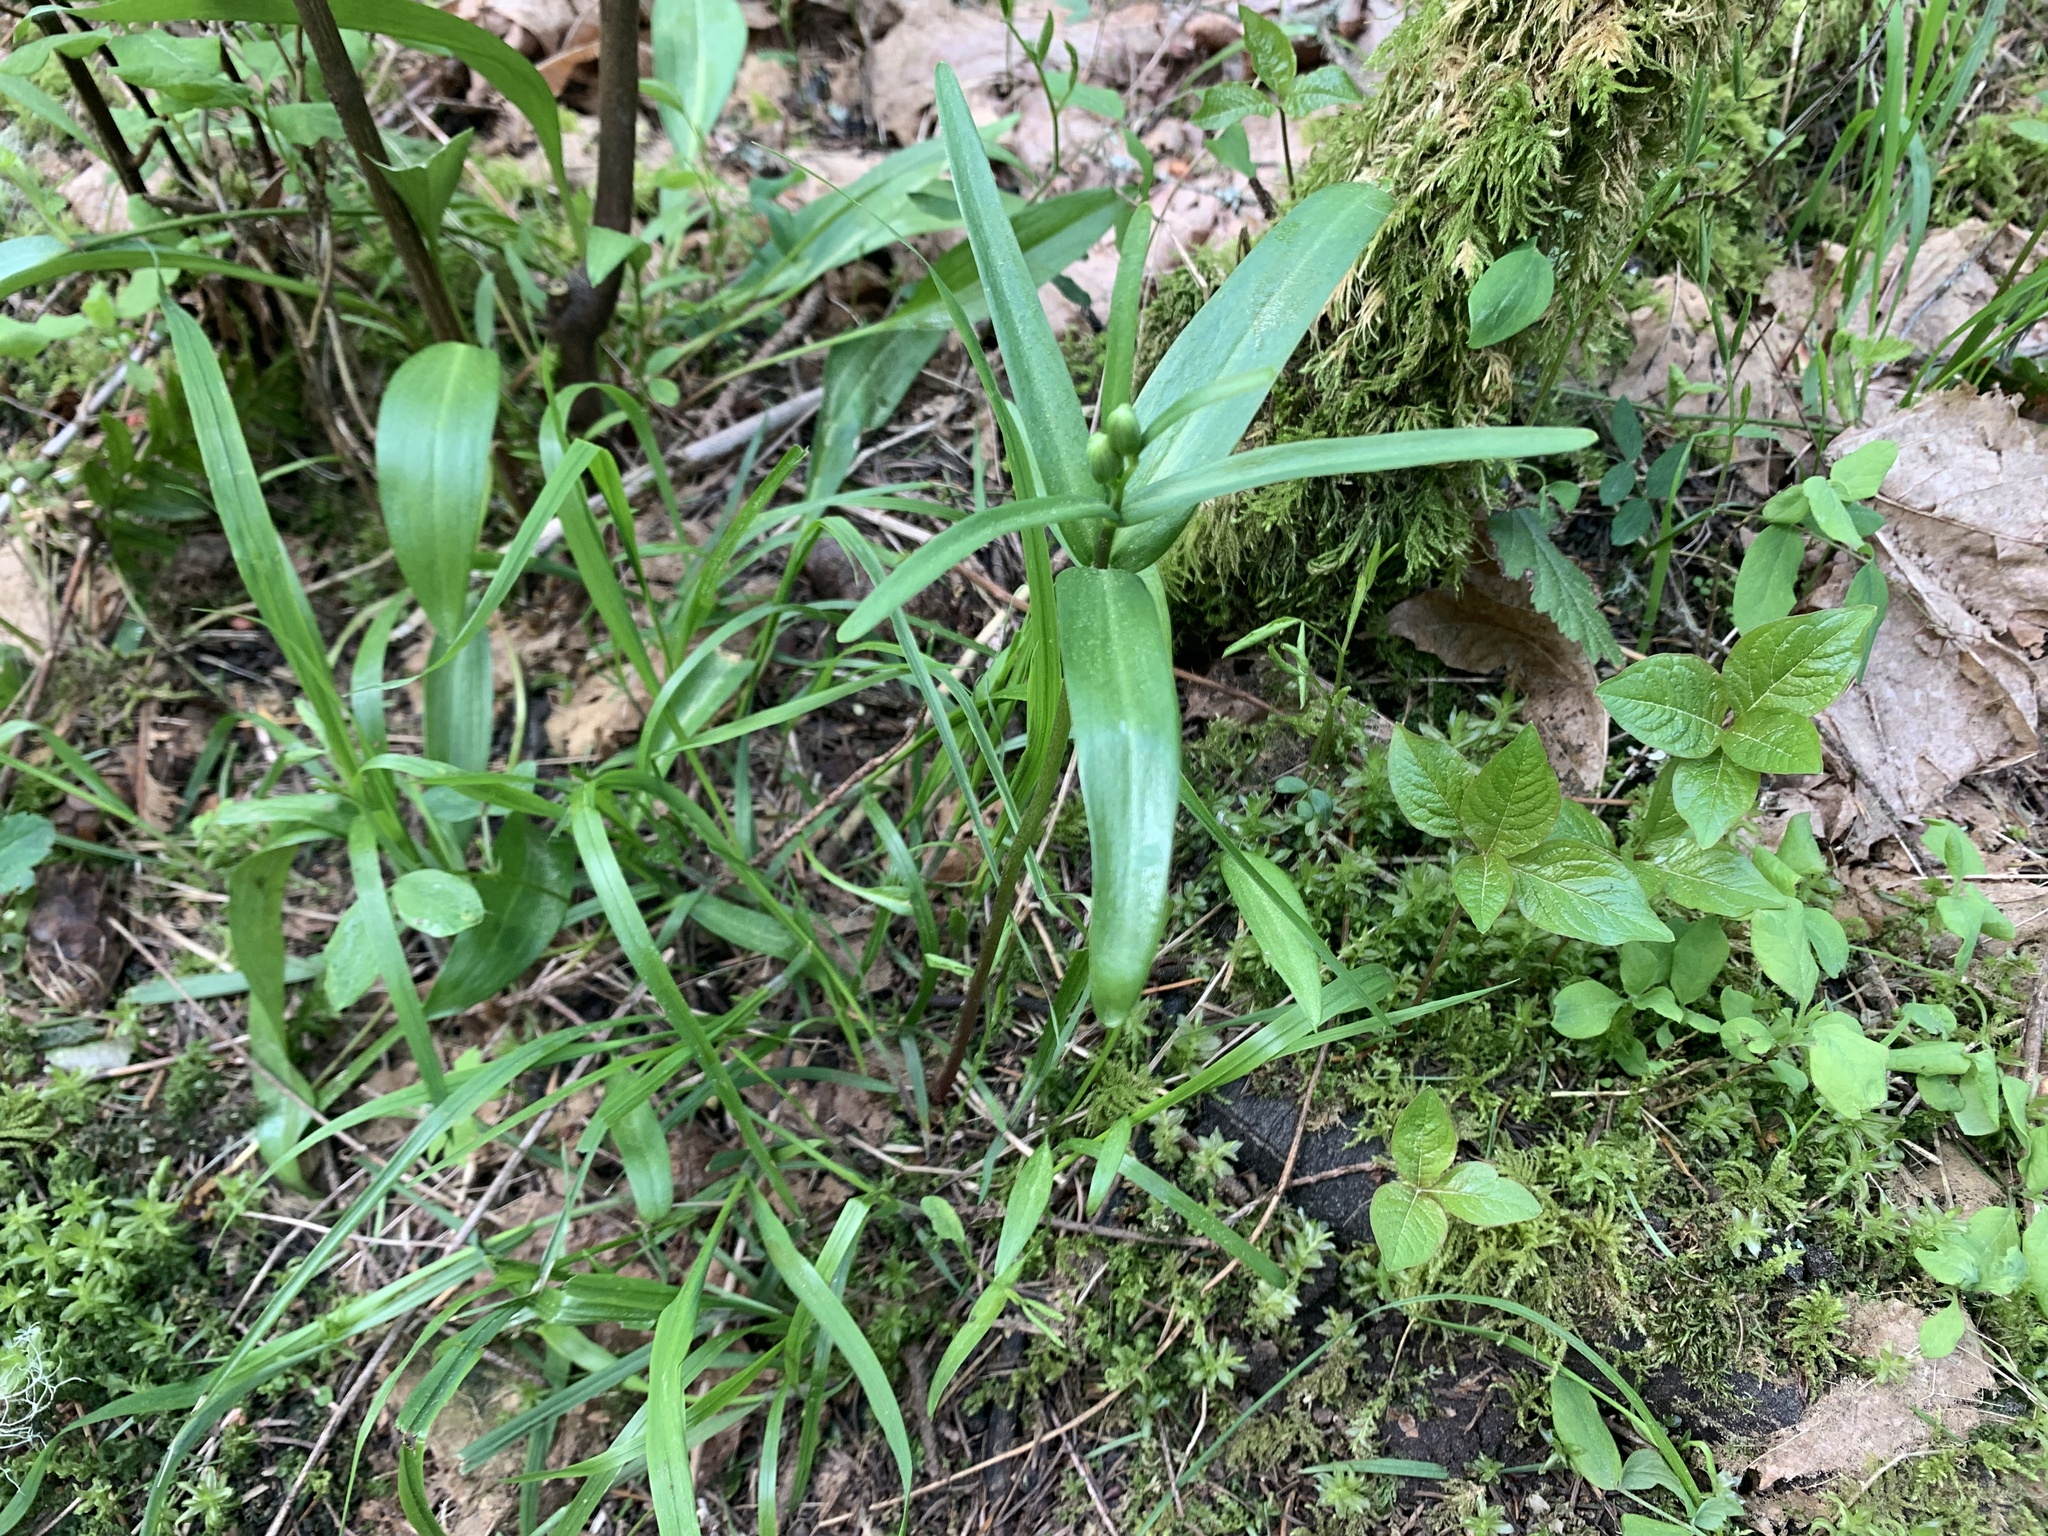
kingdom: Plantae
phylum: Tracheophyta
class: Liliopsida
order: Liliales
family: Liliaceae
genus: Fritillaria
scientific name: Fritillaria affinis
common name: Ojai fritillary
